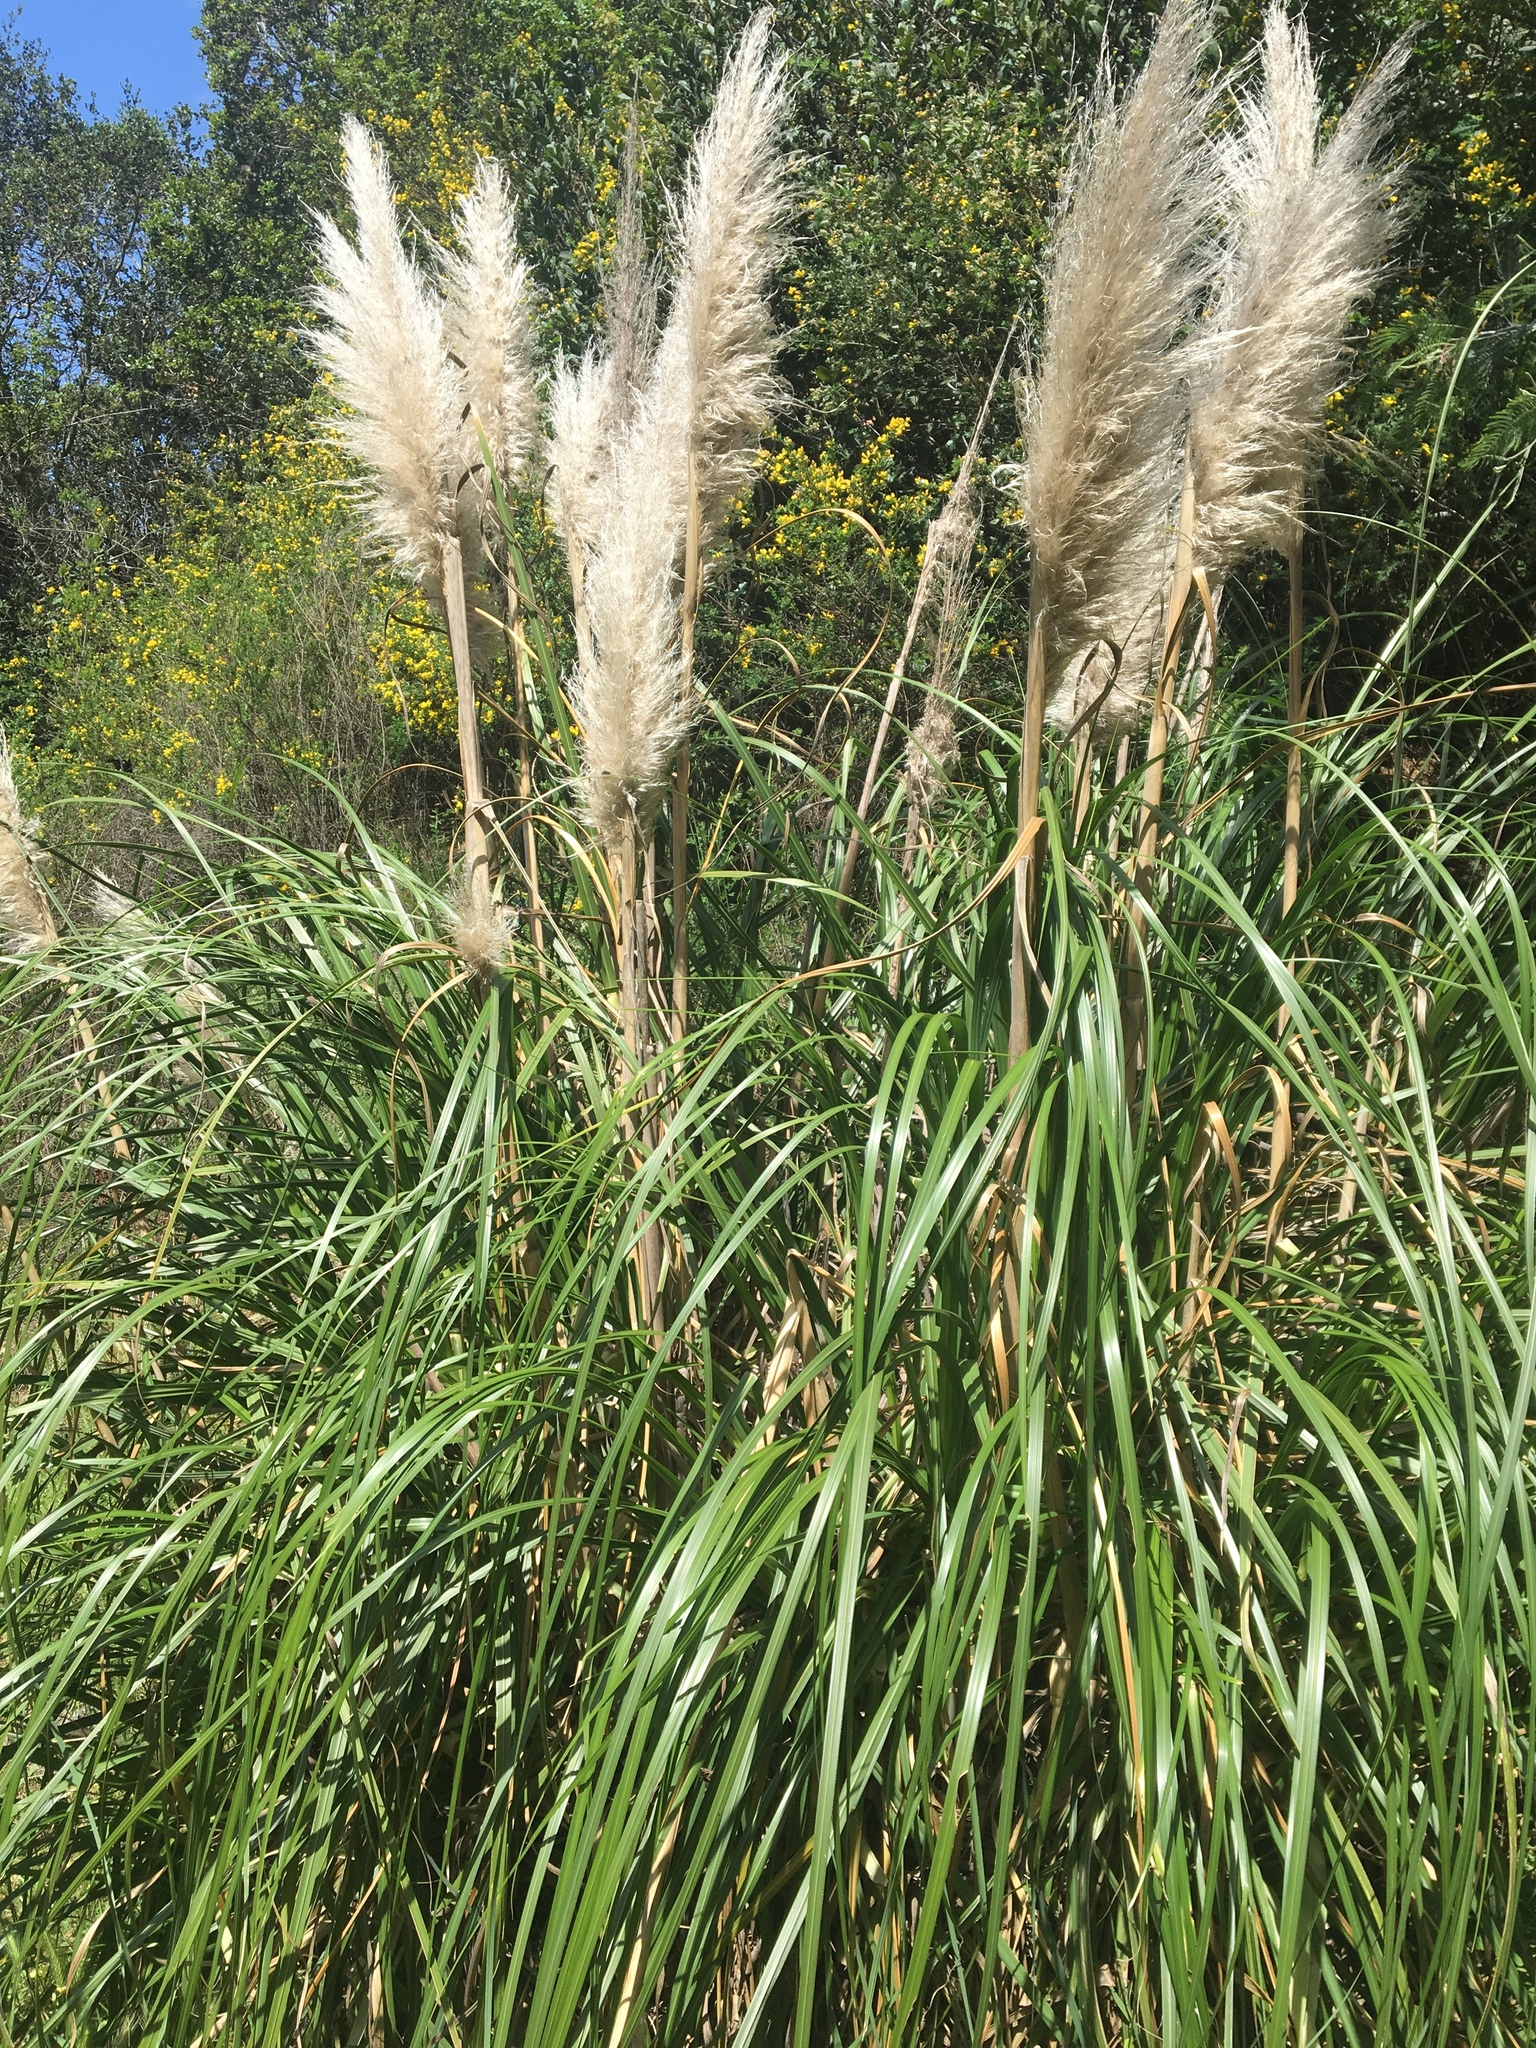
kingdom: Plantae
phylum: Tracheophyta
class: Liliopsida
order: Poales
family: Poaceae
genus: Cortaderia
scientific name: Cortaderia selloana
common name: Uruguayan pampas grass
